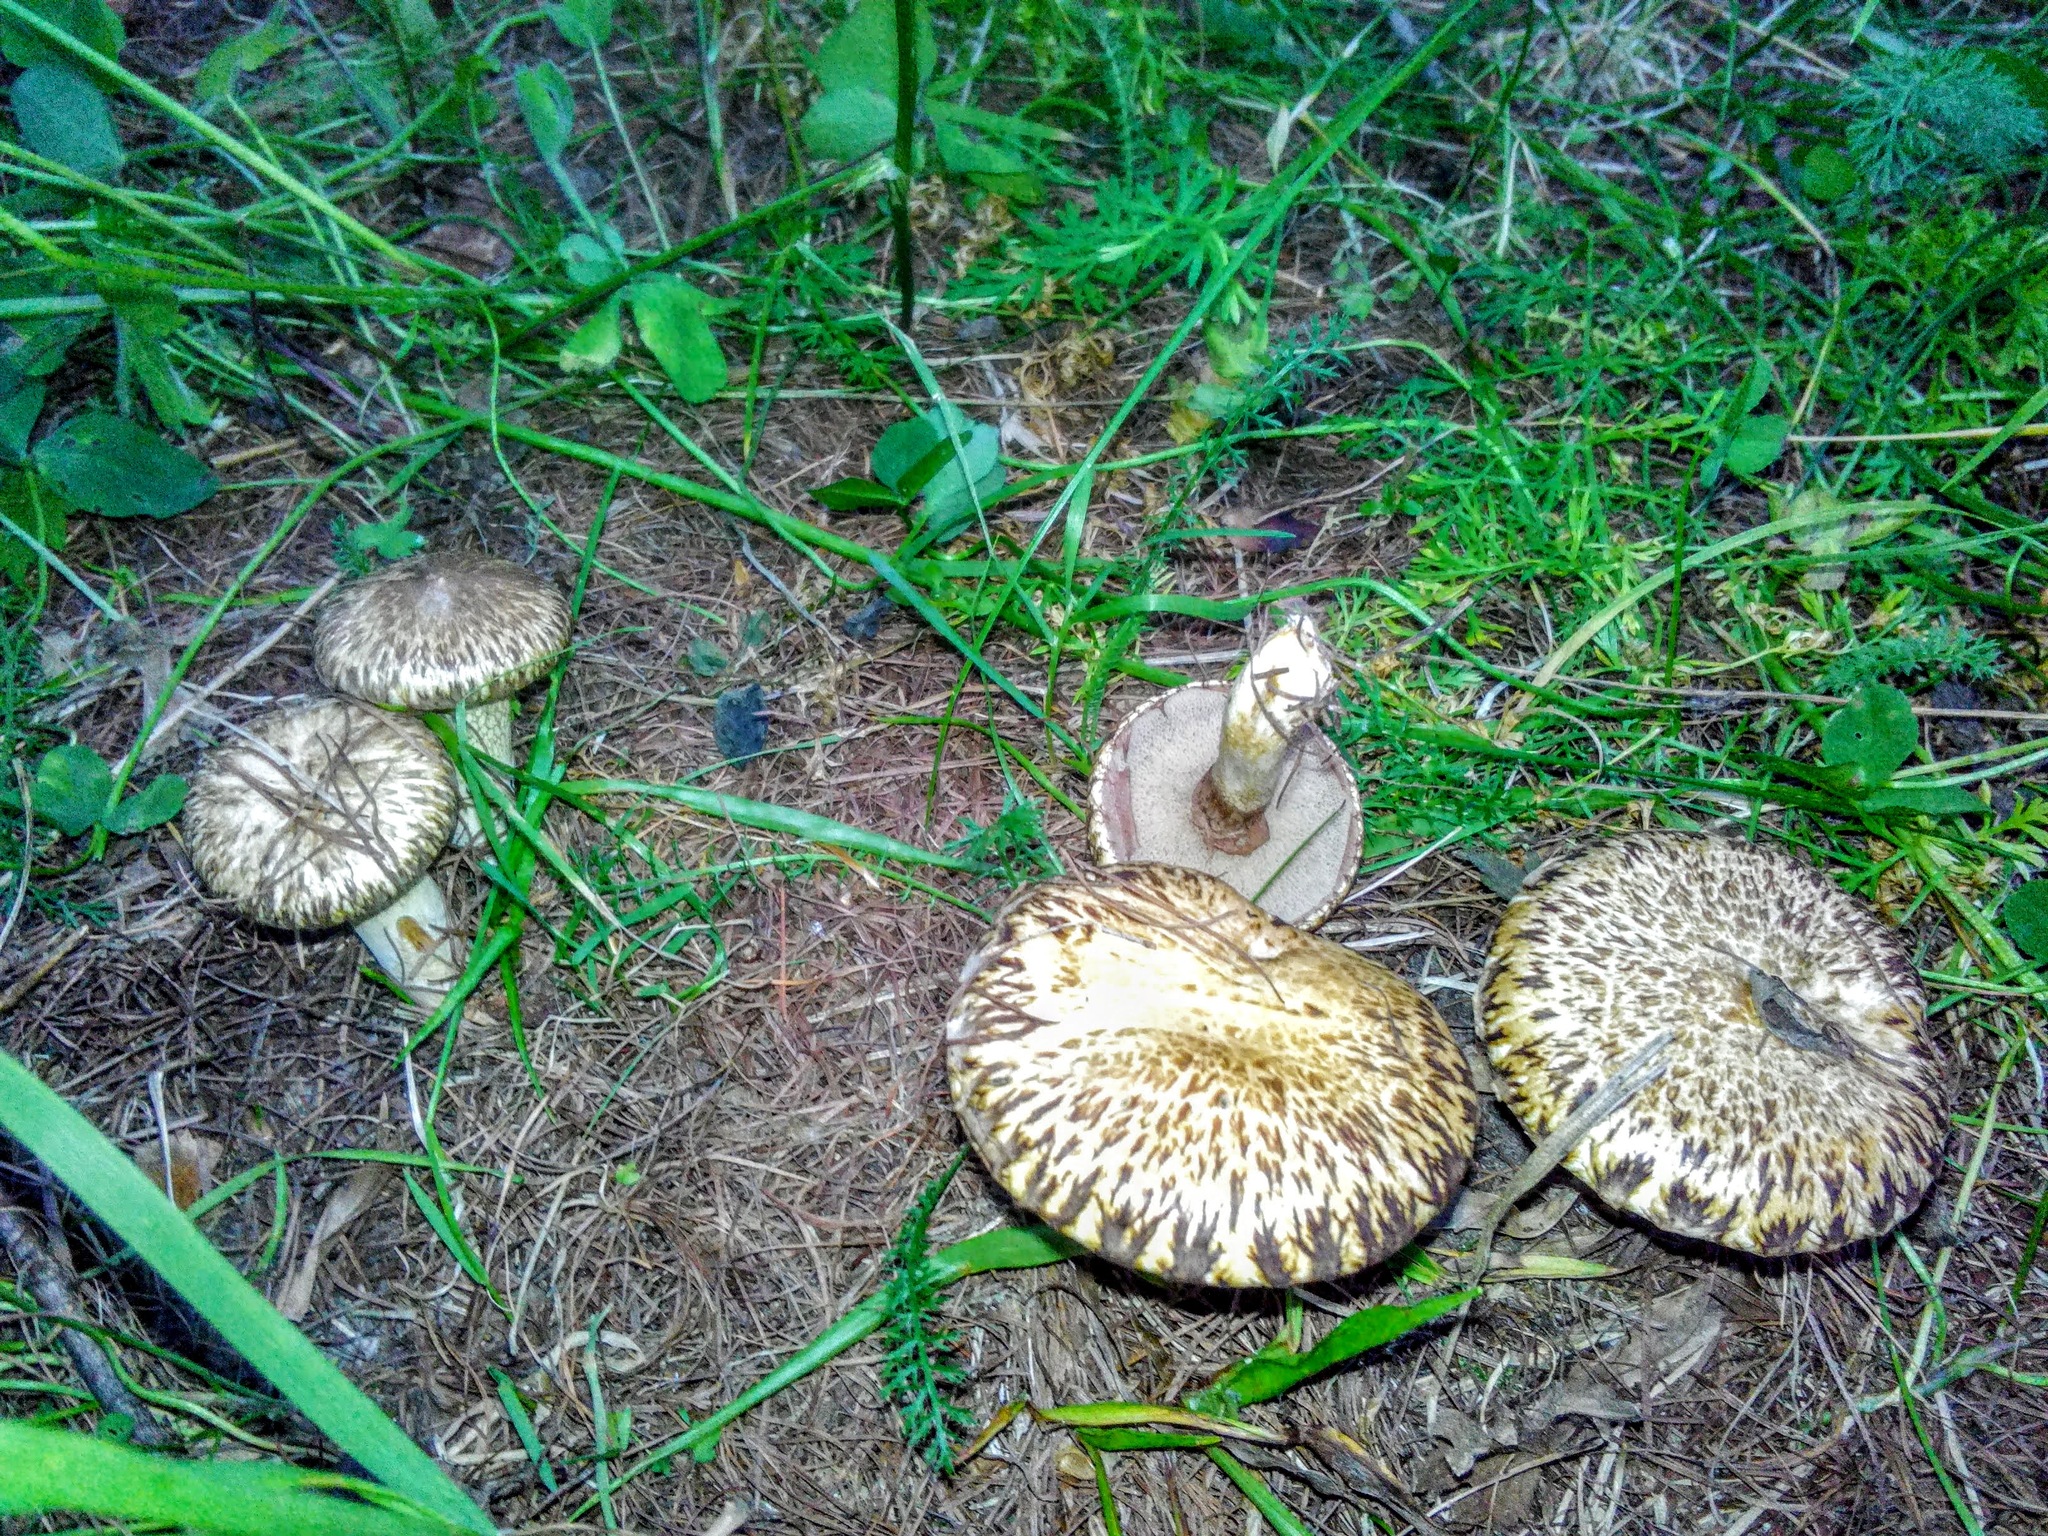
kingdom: Fungi
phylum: Basidiomycota
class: Agaricomycetes
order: Boletales
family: Suillaceae
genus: Suillus
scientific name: Suillus viscidus
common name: Sticky bolete
